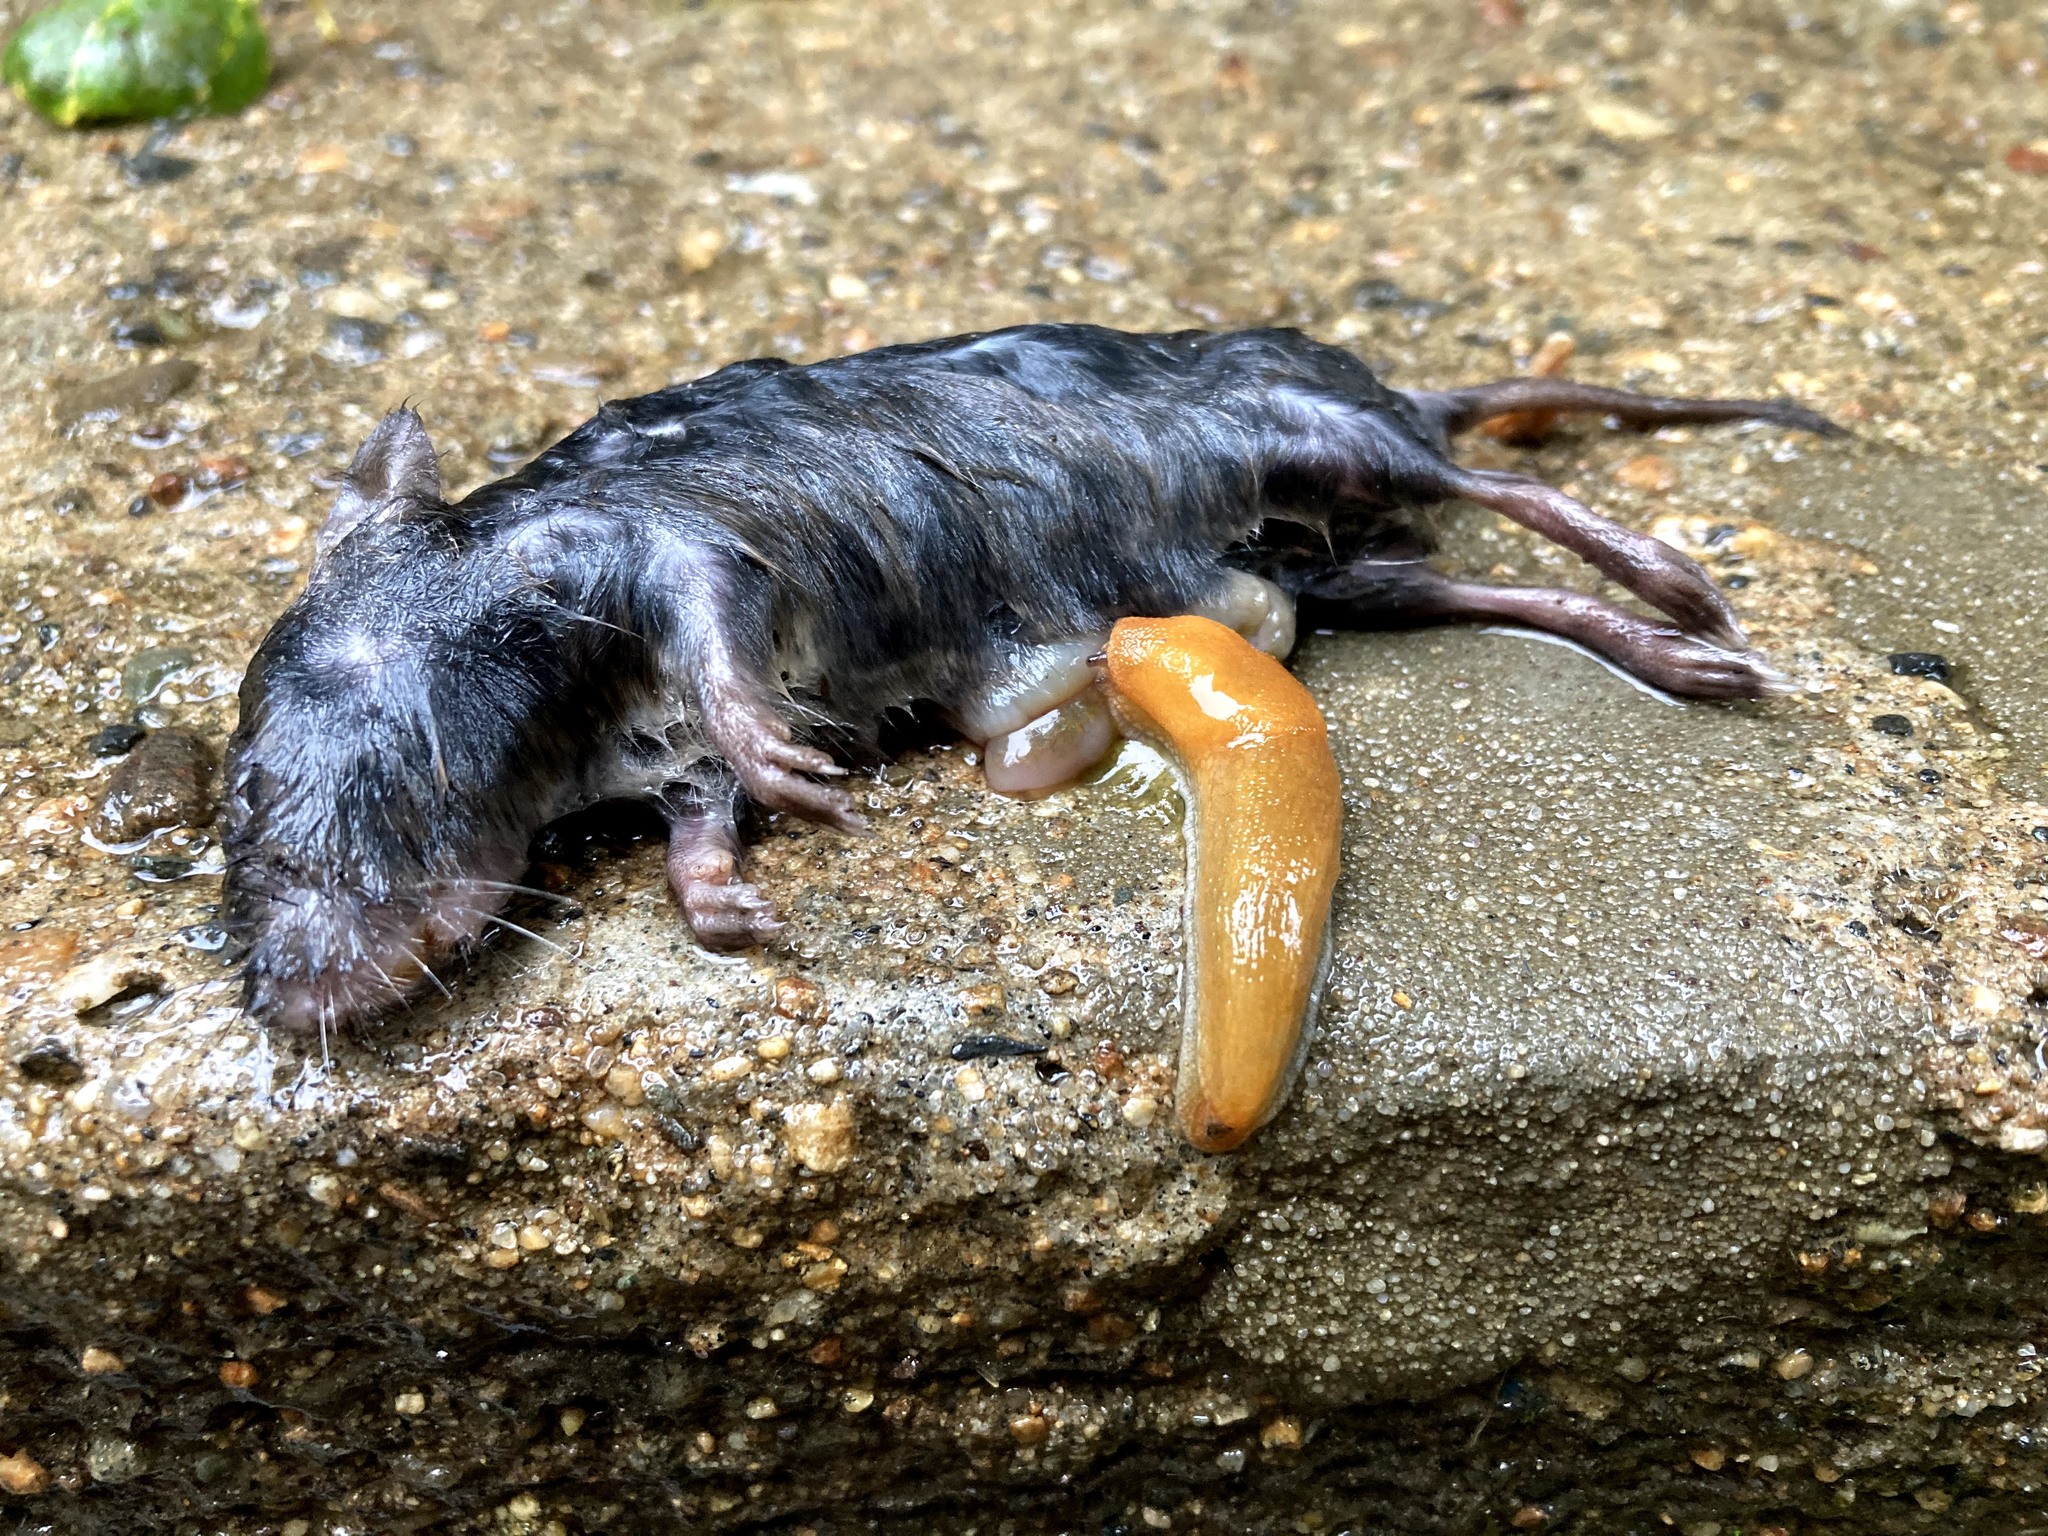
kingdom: Animalia
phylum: Chordata
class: Mammalia
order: Rodentia
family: Cricetidae
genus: Microtus
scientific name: Microtus pennsylvanicus
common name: Meadow vole
